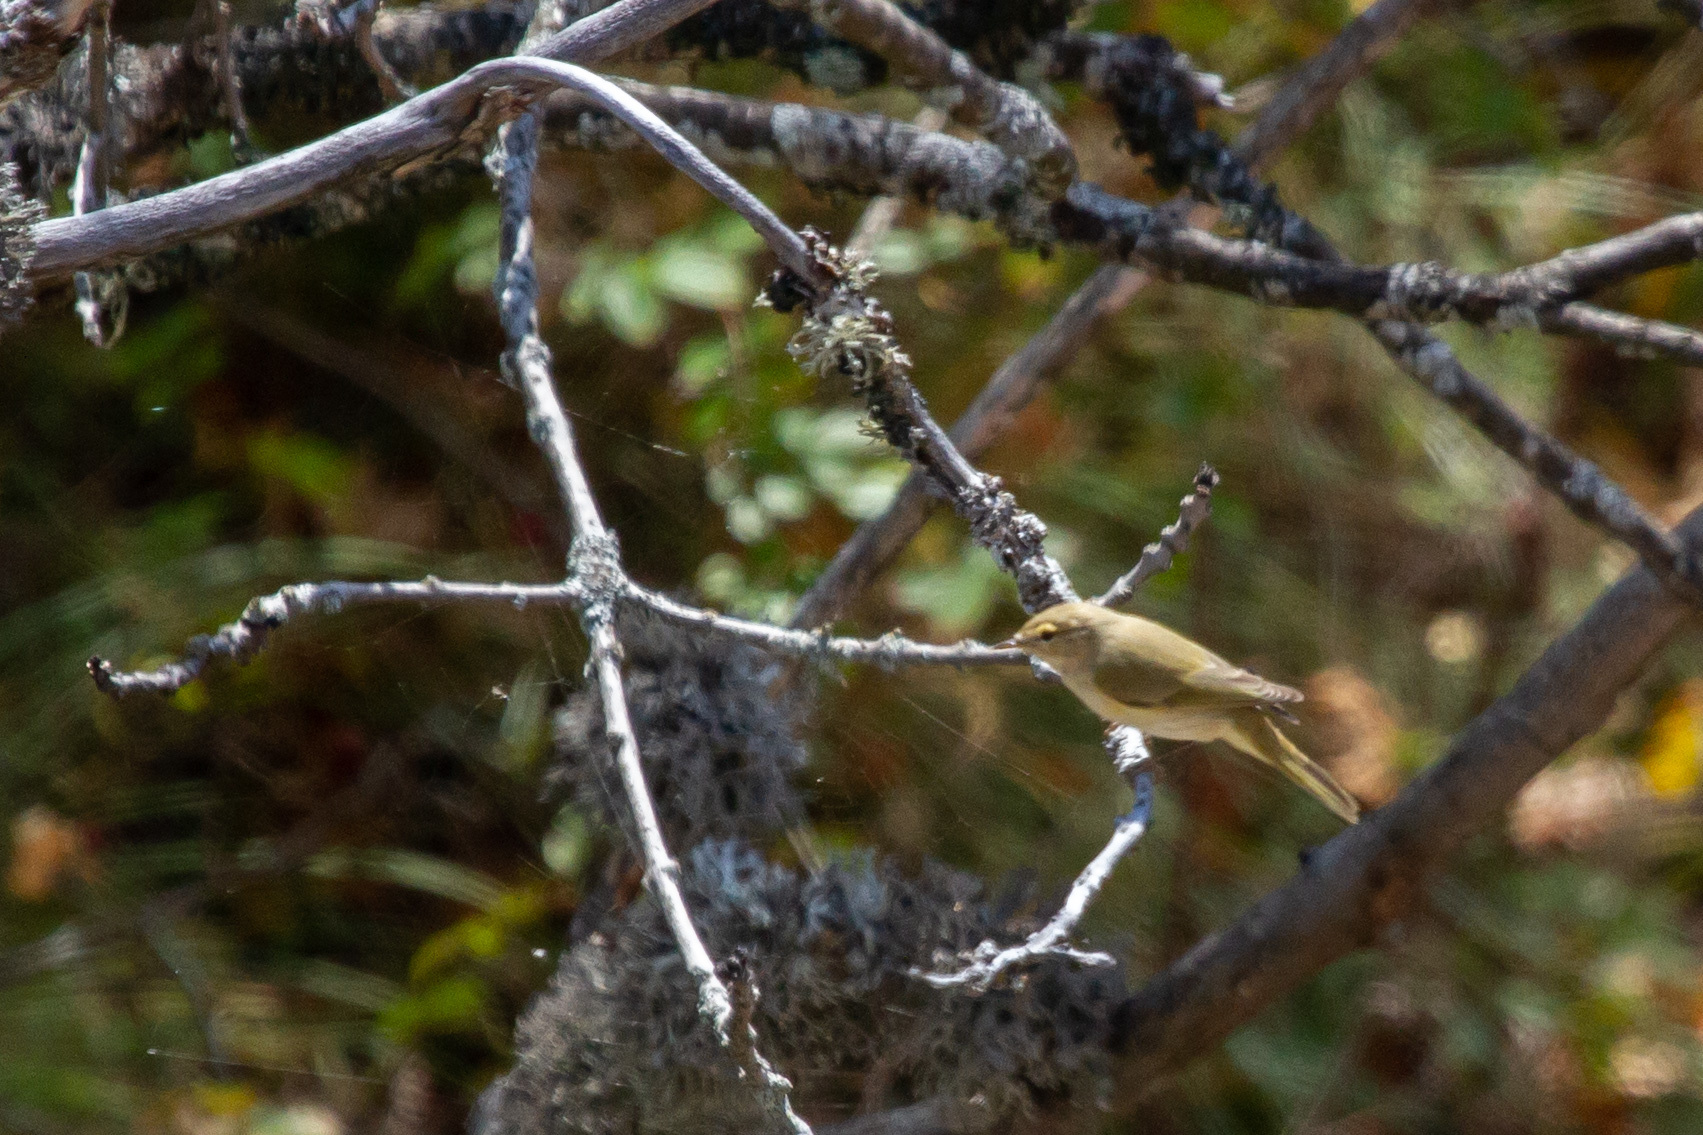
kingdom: Animalia
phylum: Chordata
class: Aves
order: Passeriformes
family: Phylloscopidae
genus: Phylloscopus
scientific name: Phylloscopus collybita
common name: Common chiffchaff
